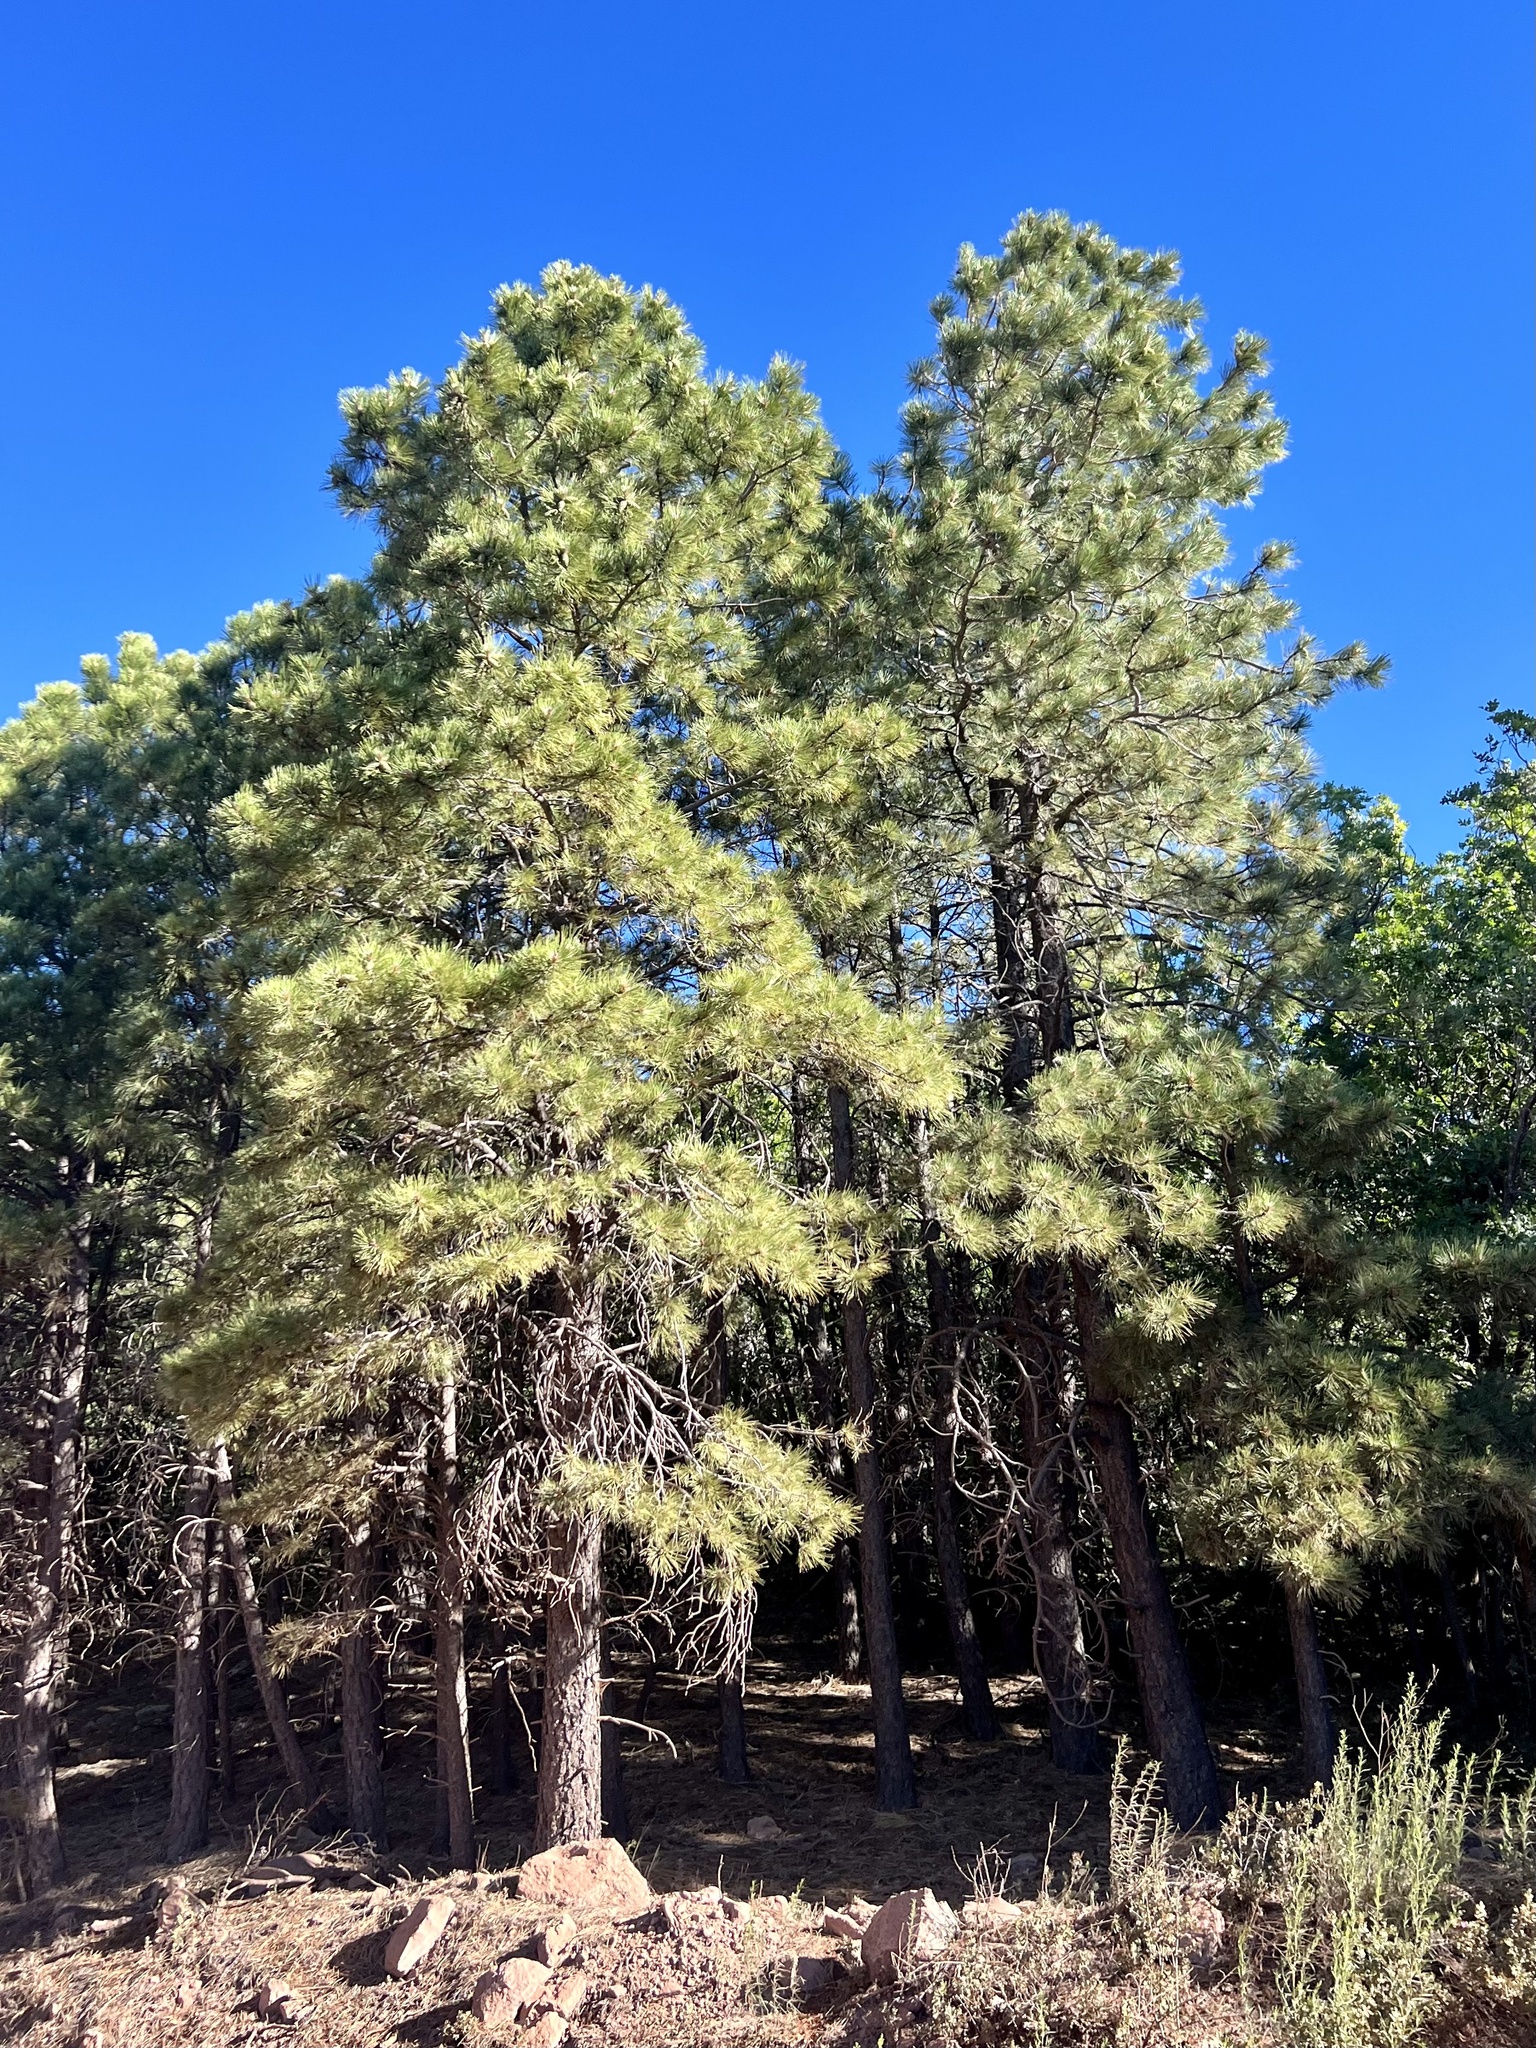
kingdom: Plantae
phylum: Tracheophyta
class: Pinopsida
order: Pinales
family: Pinaceae
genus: Pinus
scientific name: Pinus ponderosa
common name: Western yellow-pine
